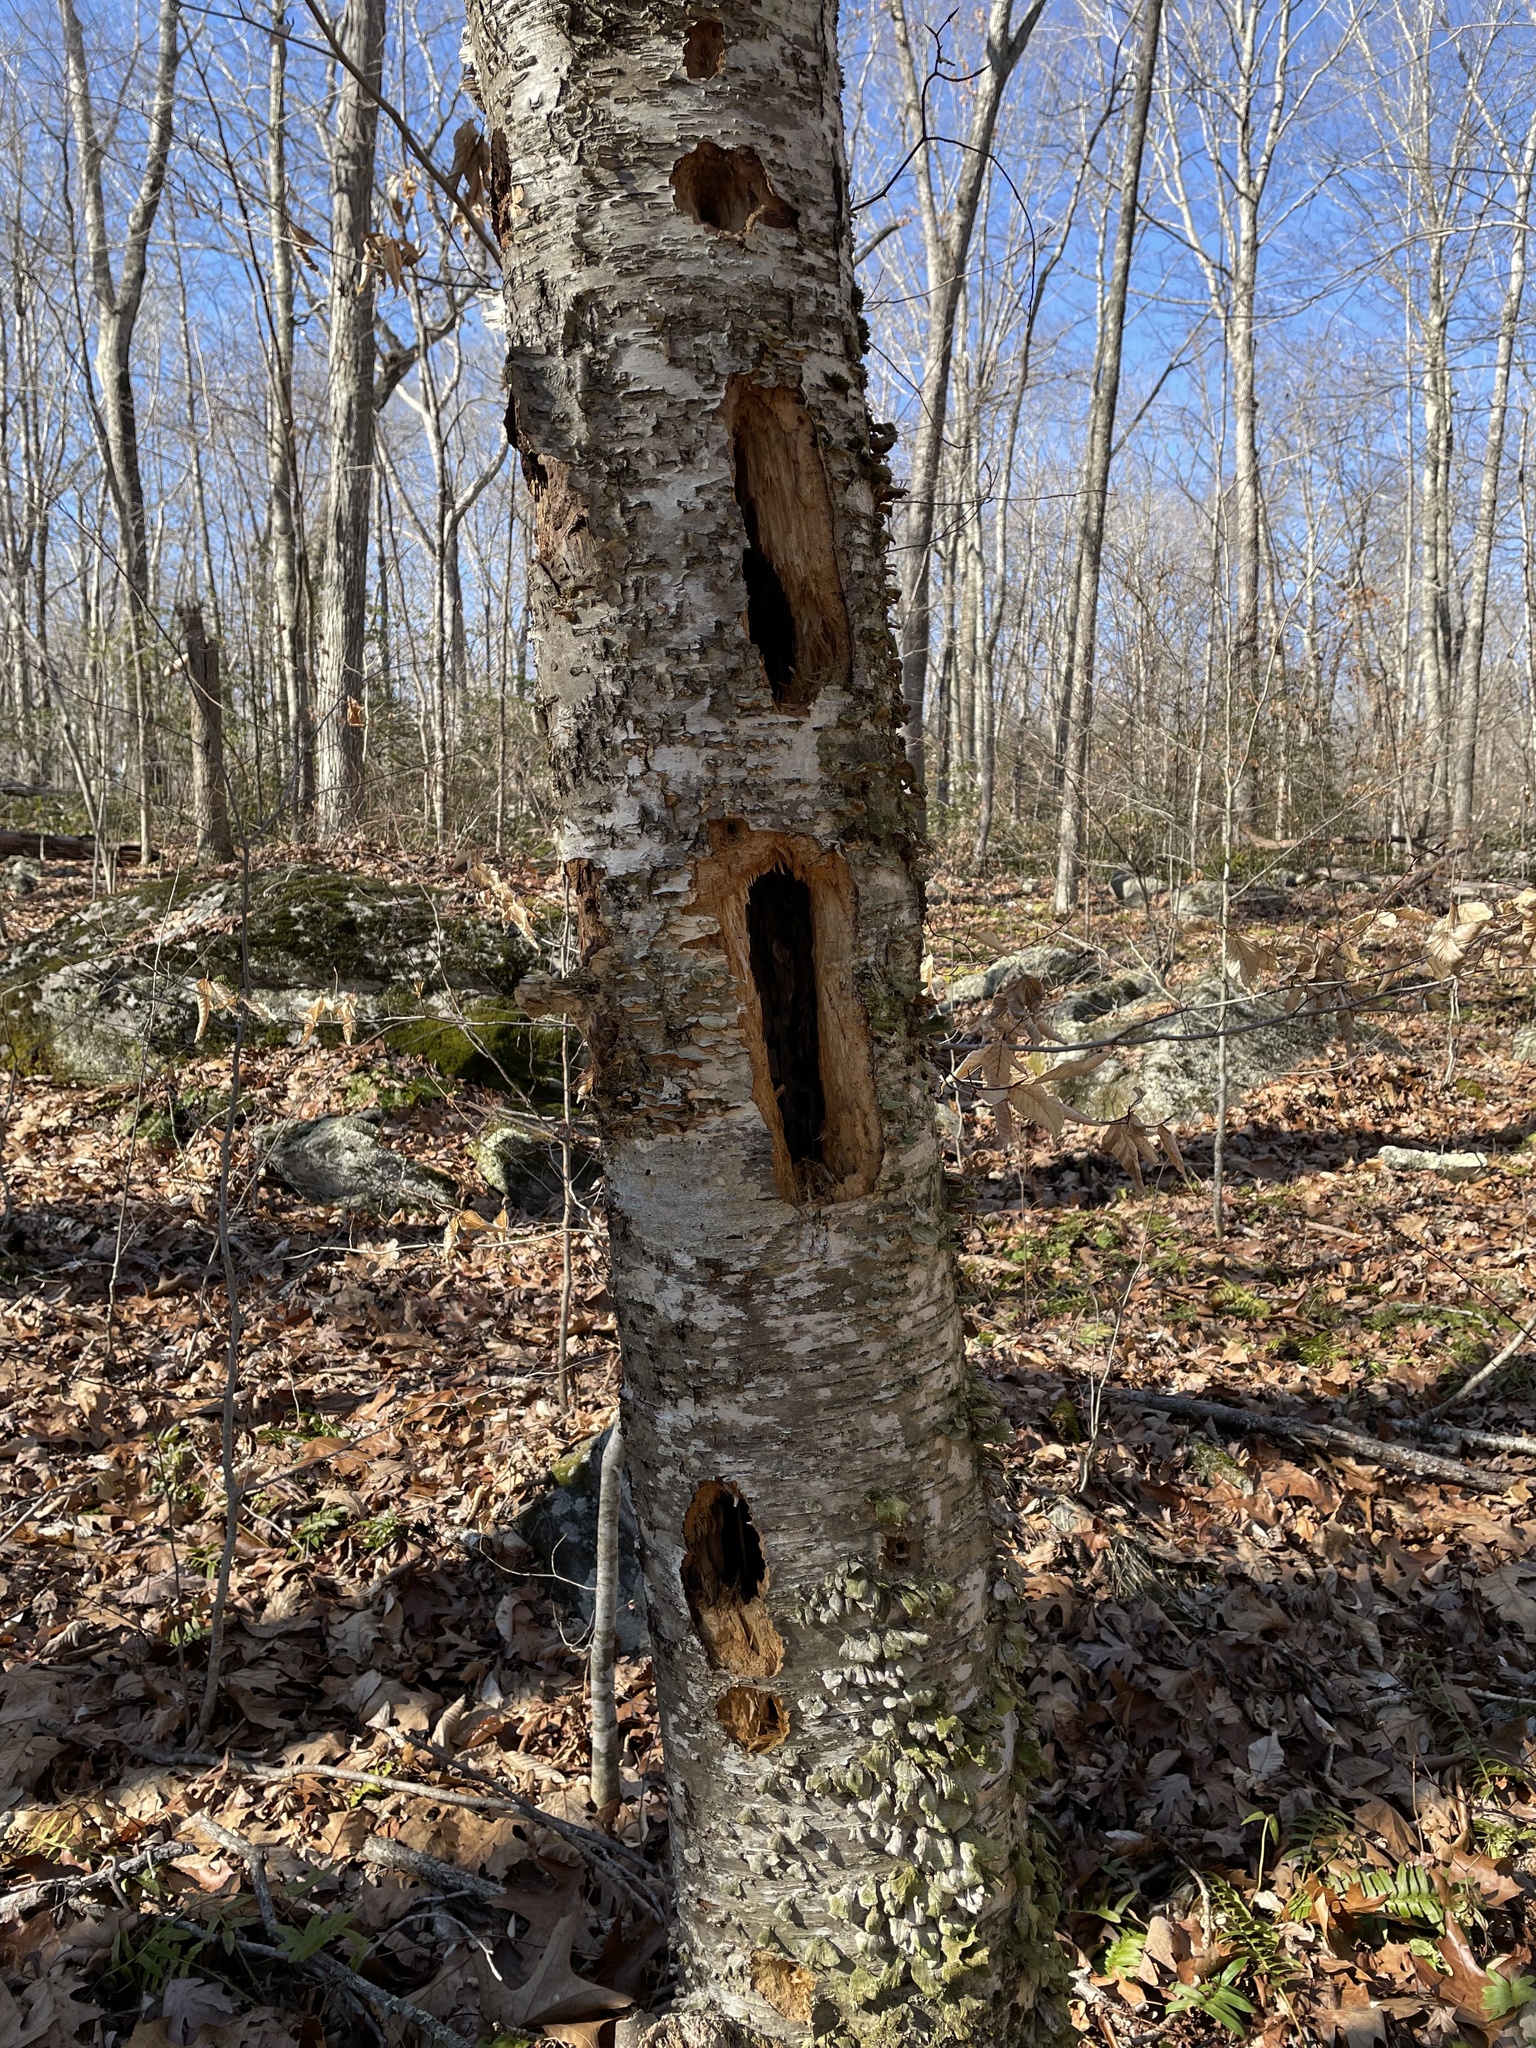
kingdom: Animalia
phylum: Chordata
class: Aves
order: Piciformes
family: Picidae
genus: Dryocopus
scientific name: Dryocopus pileatus
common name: Pileated woodpecker
